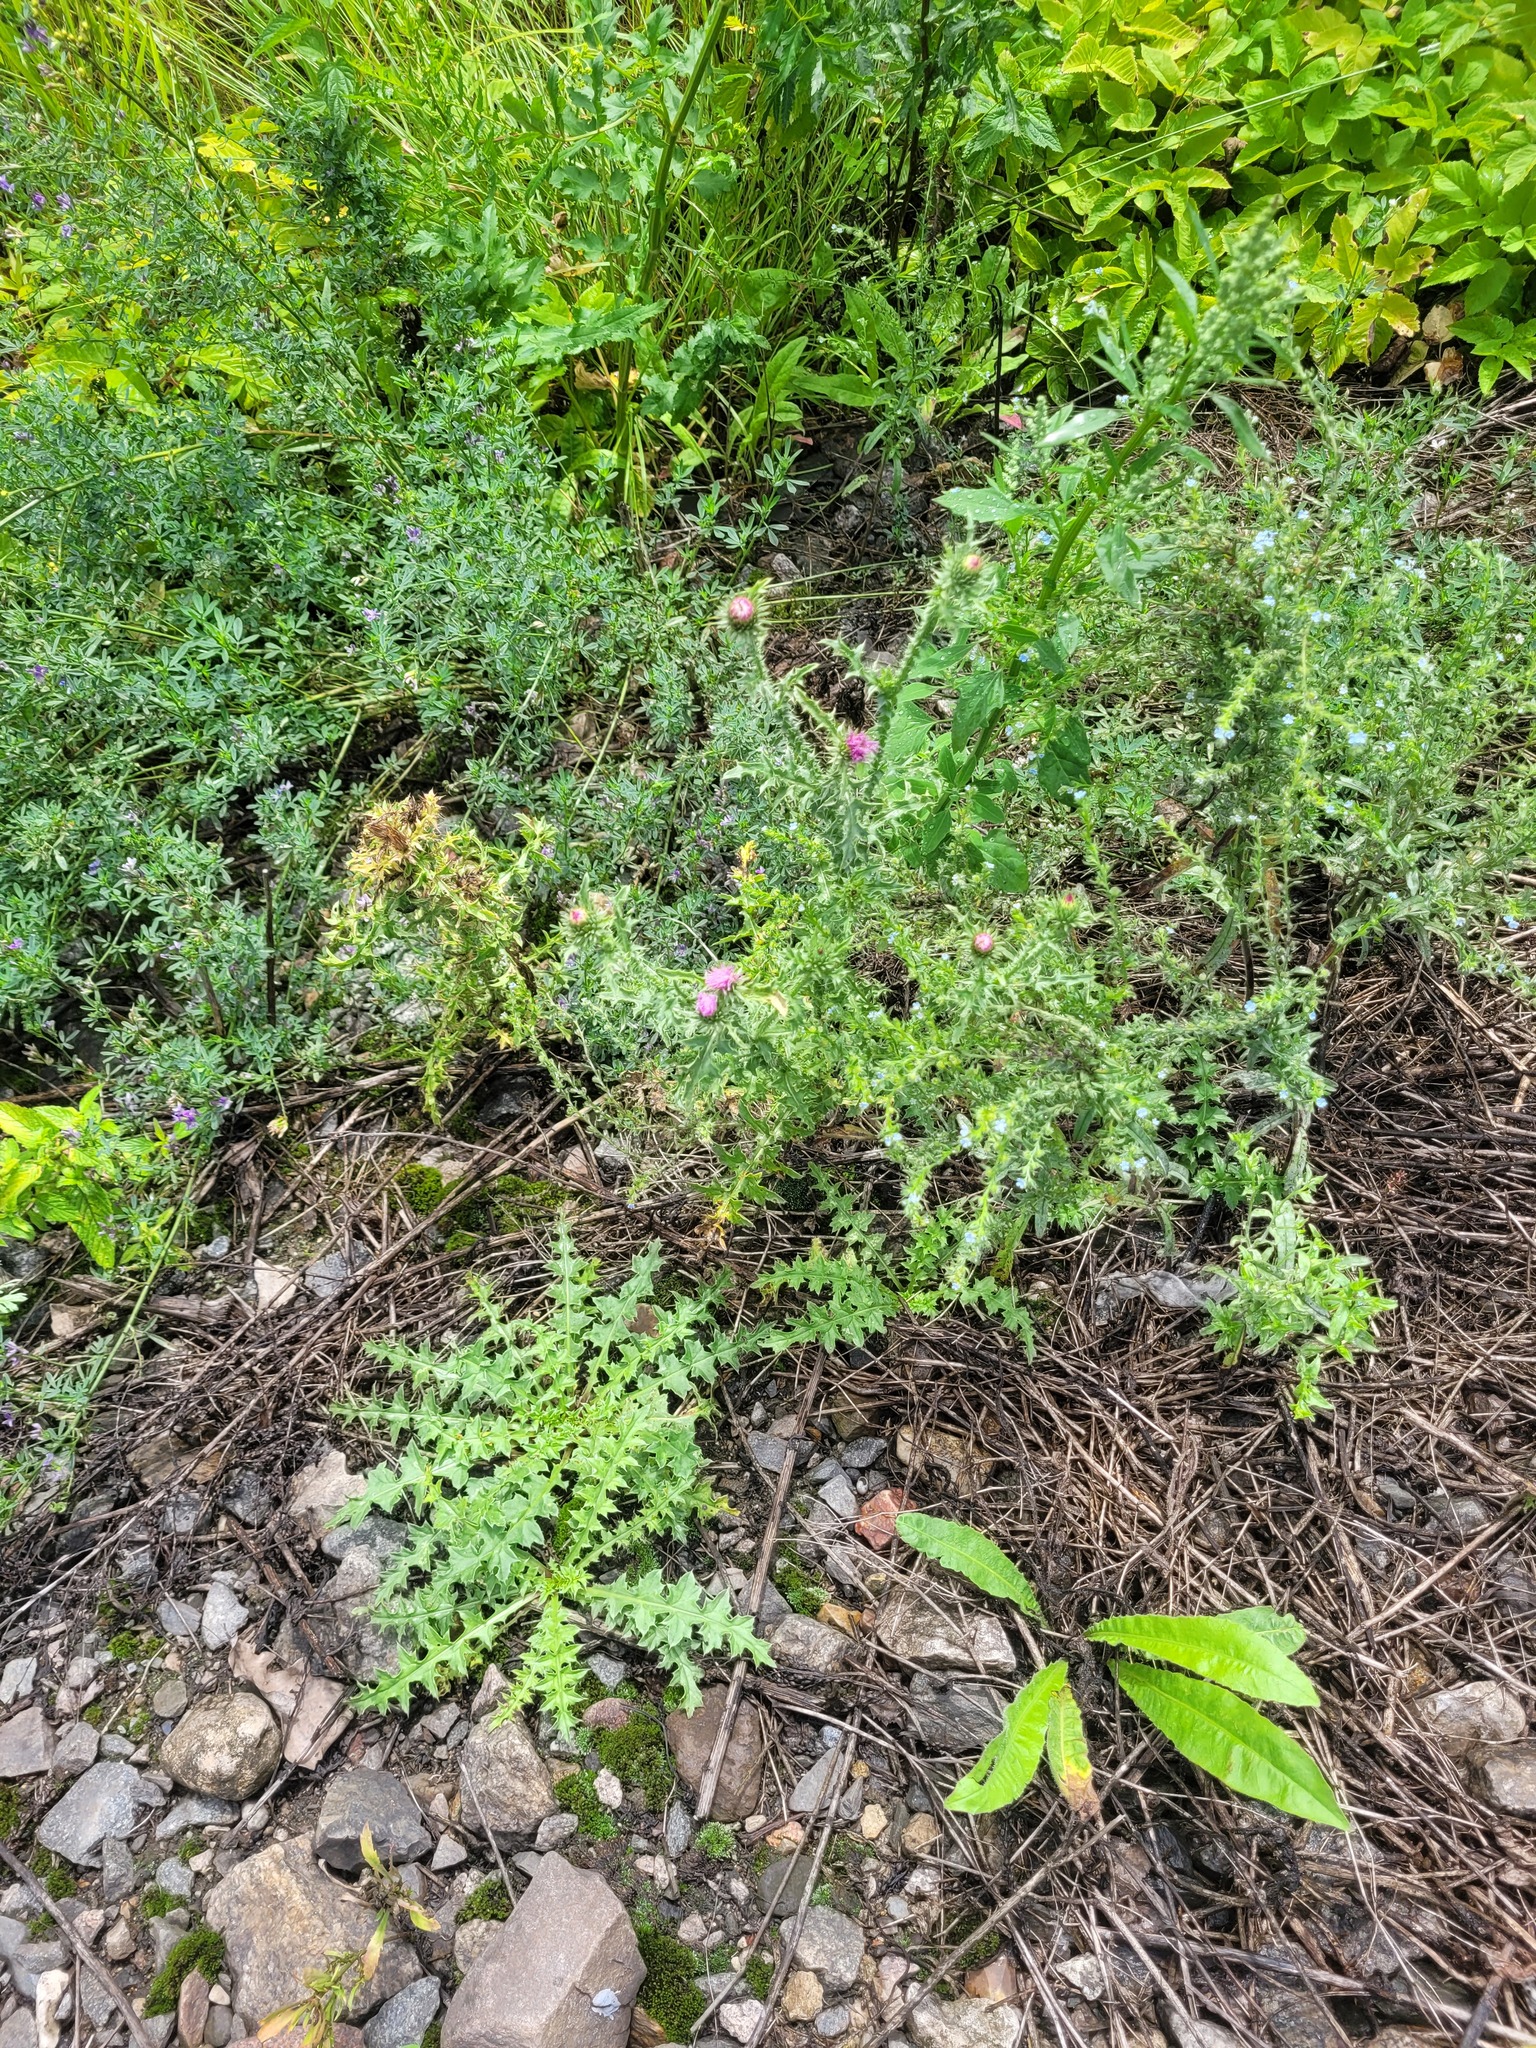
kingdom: Plantae
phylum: Tracheophyta
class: Magnoliopsida
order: Asterales
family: Asteraceae
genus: Carduus
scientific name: Carduus acanthoides
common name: Plumeless thistle
